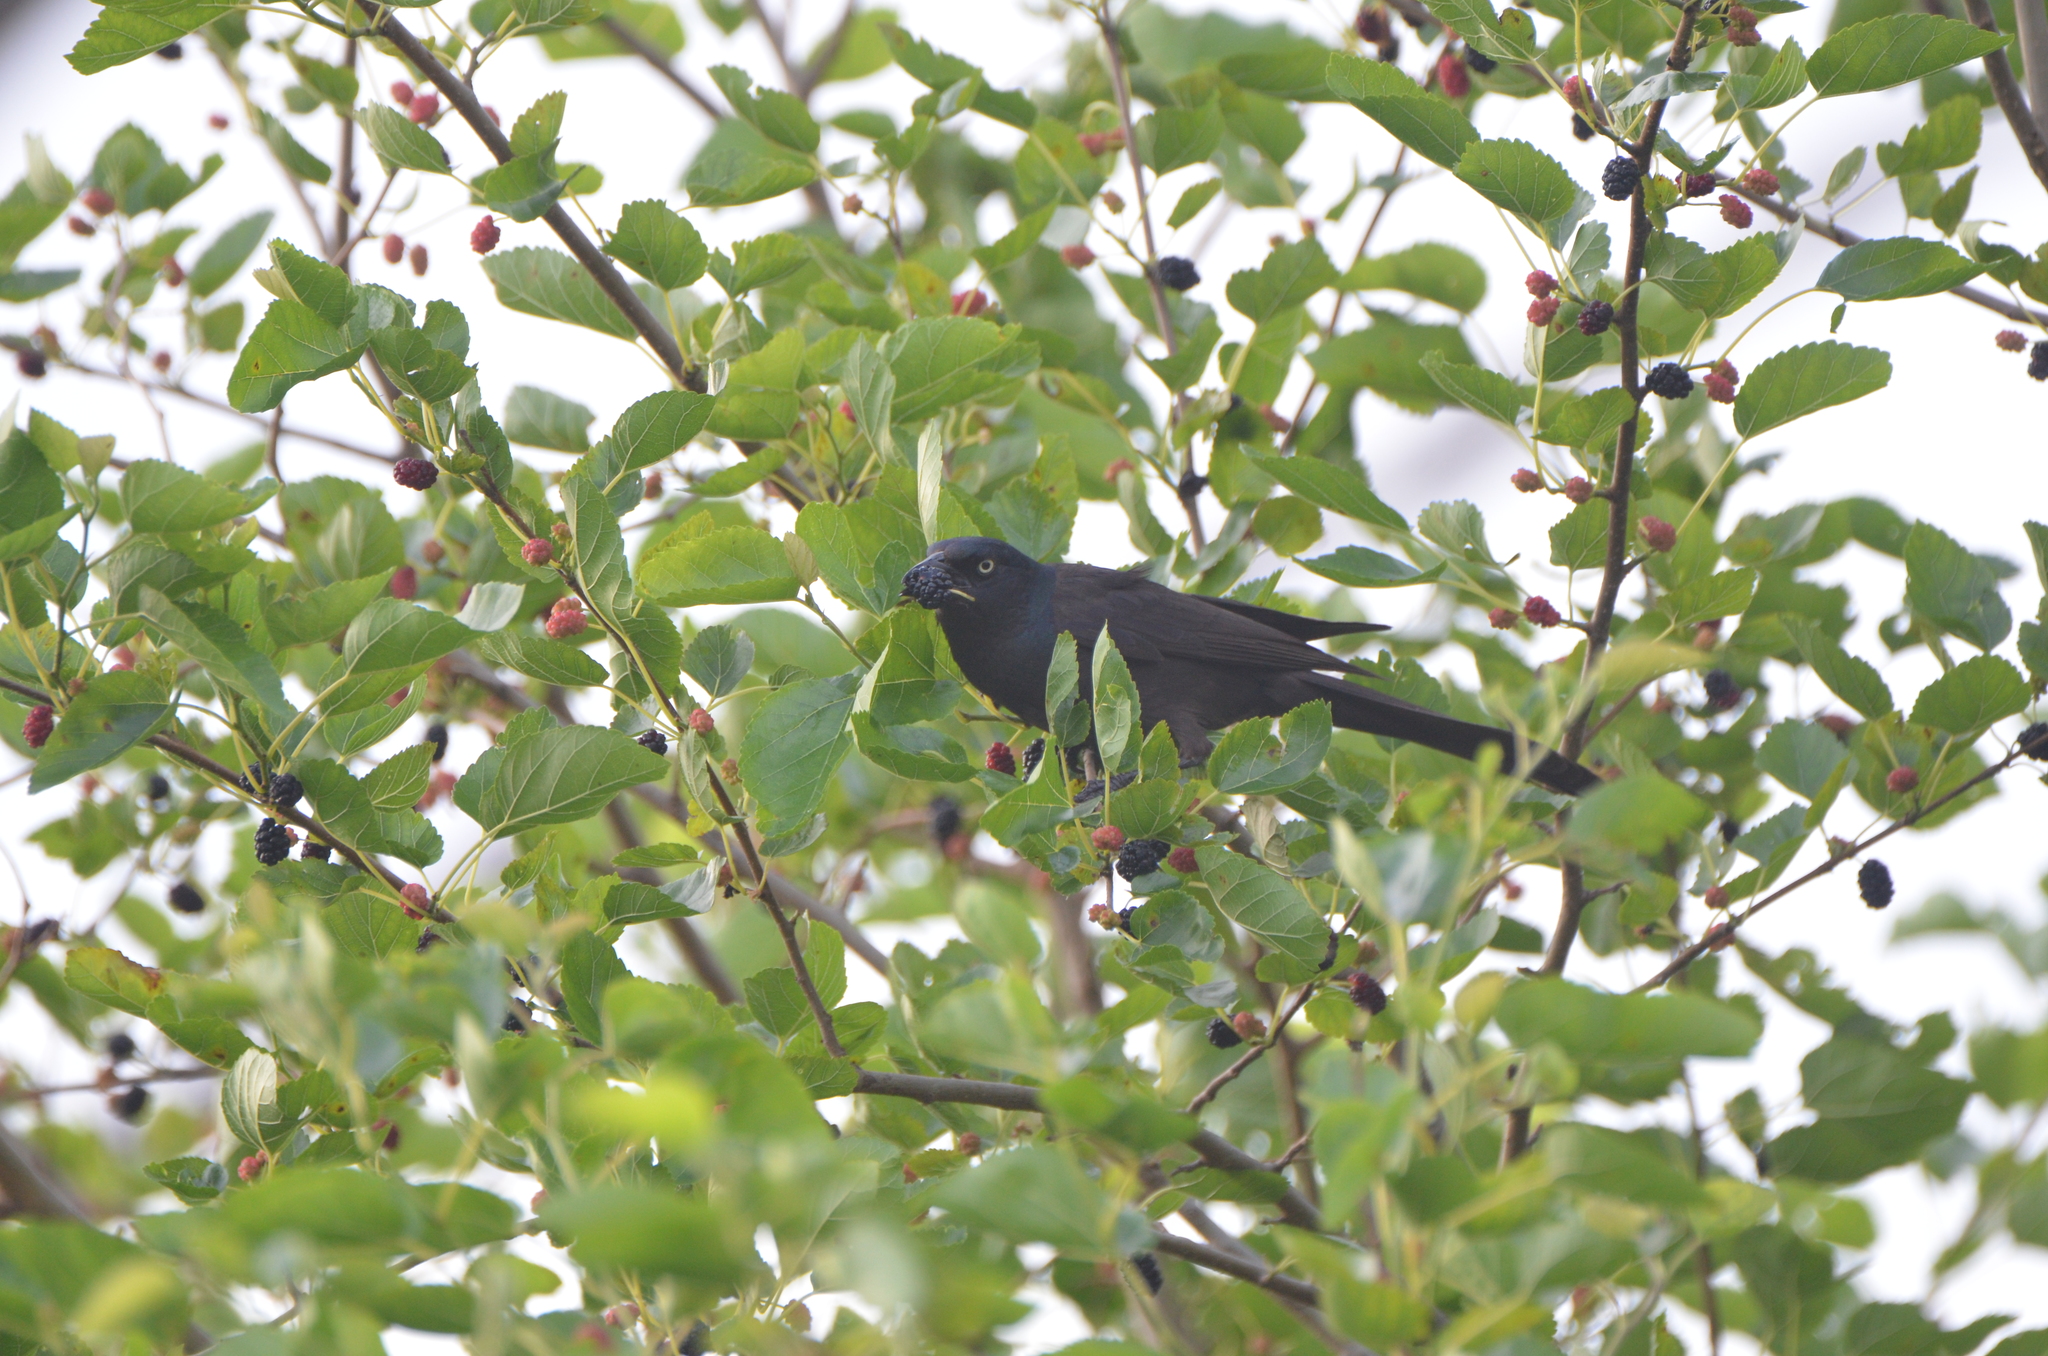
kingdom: Animalia
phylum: Chordata
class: Aves
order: Passeriformes
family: Icteridae
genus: Quiscalus
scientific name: Quiscalus quiscula
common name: Common grackle
